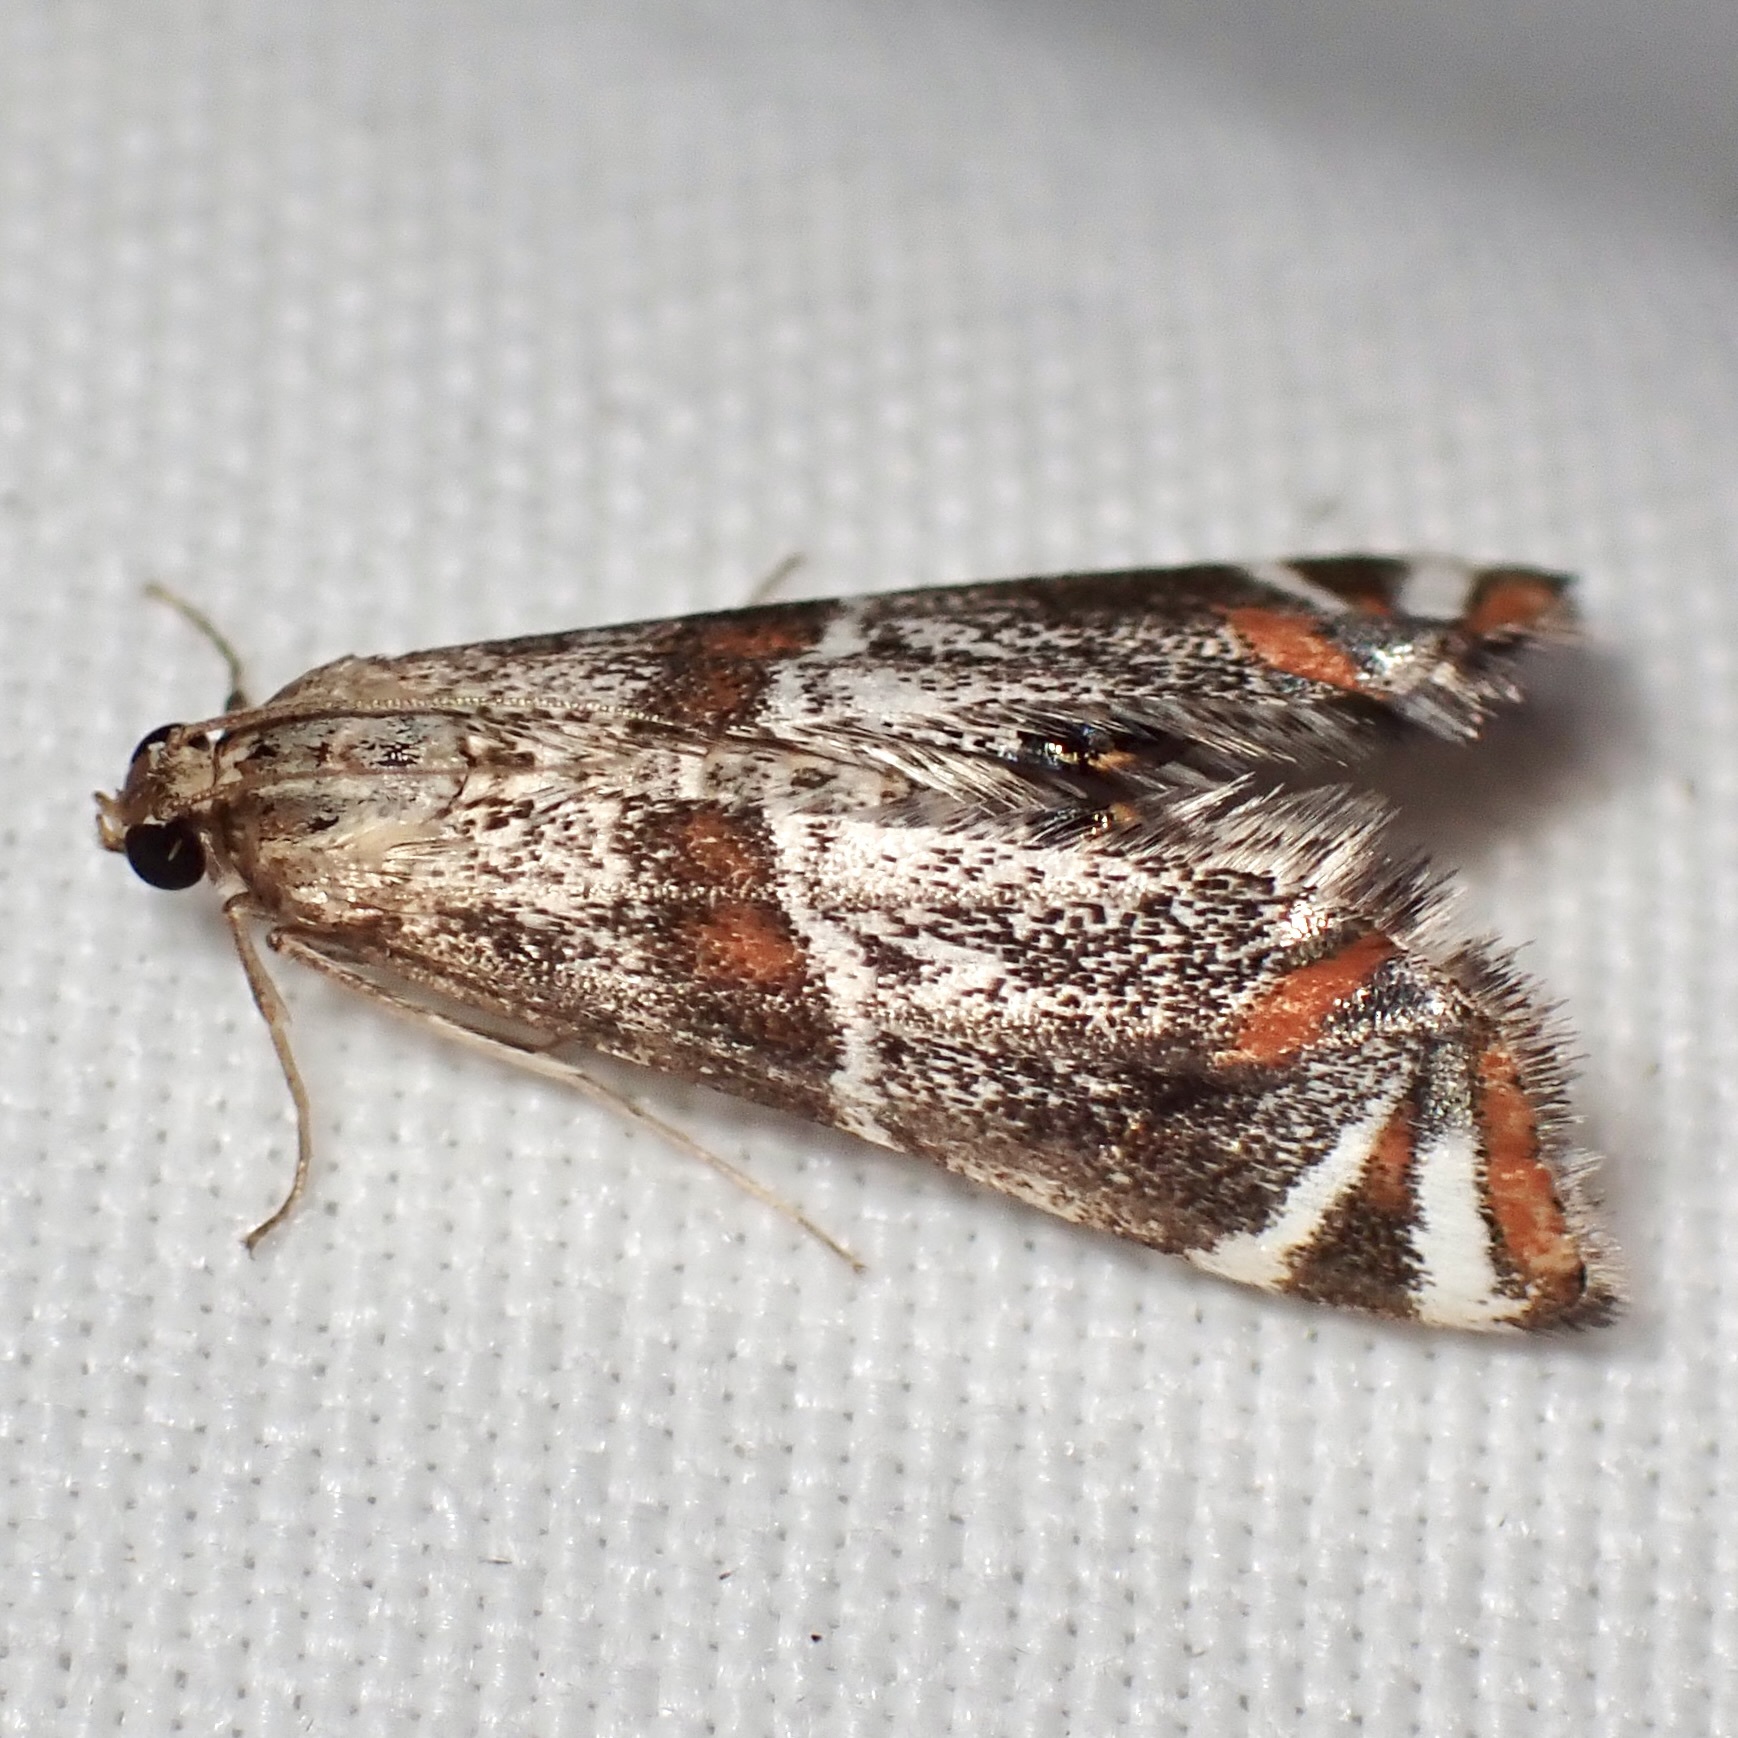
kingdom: Animalia
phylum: Arthropoda
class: Insecta
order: Lepidoptera
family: Crambidae
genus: Petrophila
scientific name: Petrophila jaliscalis
